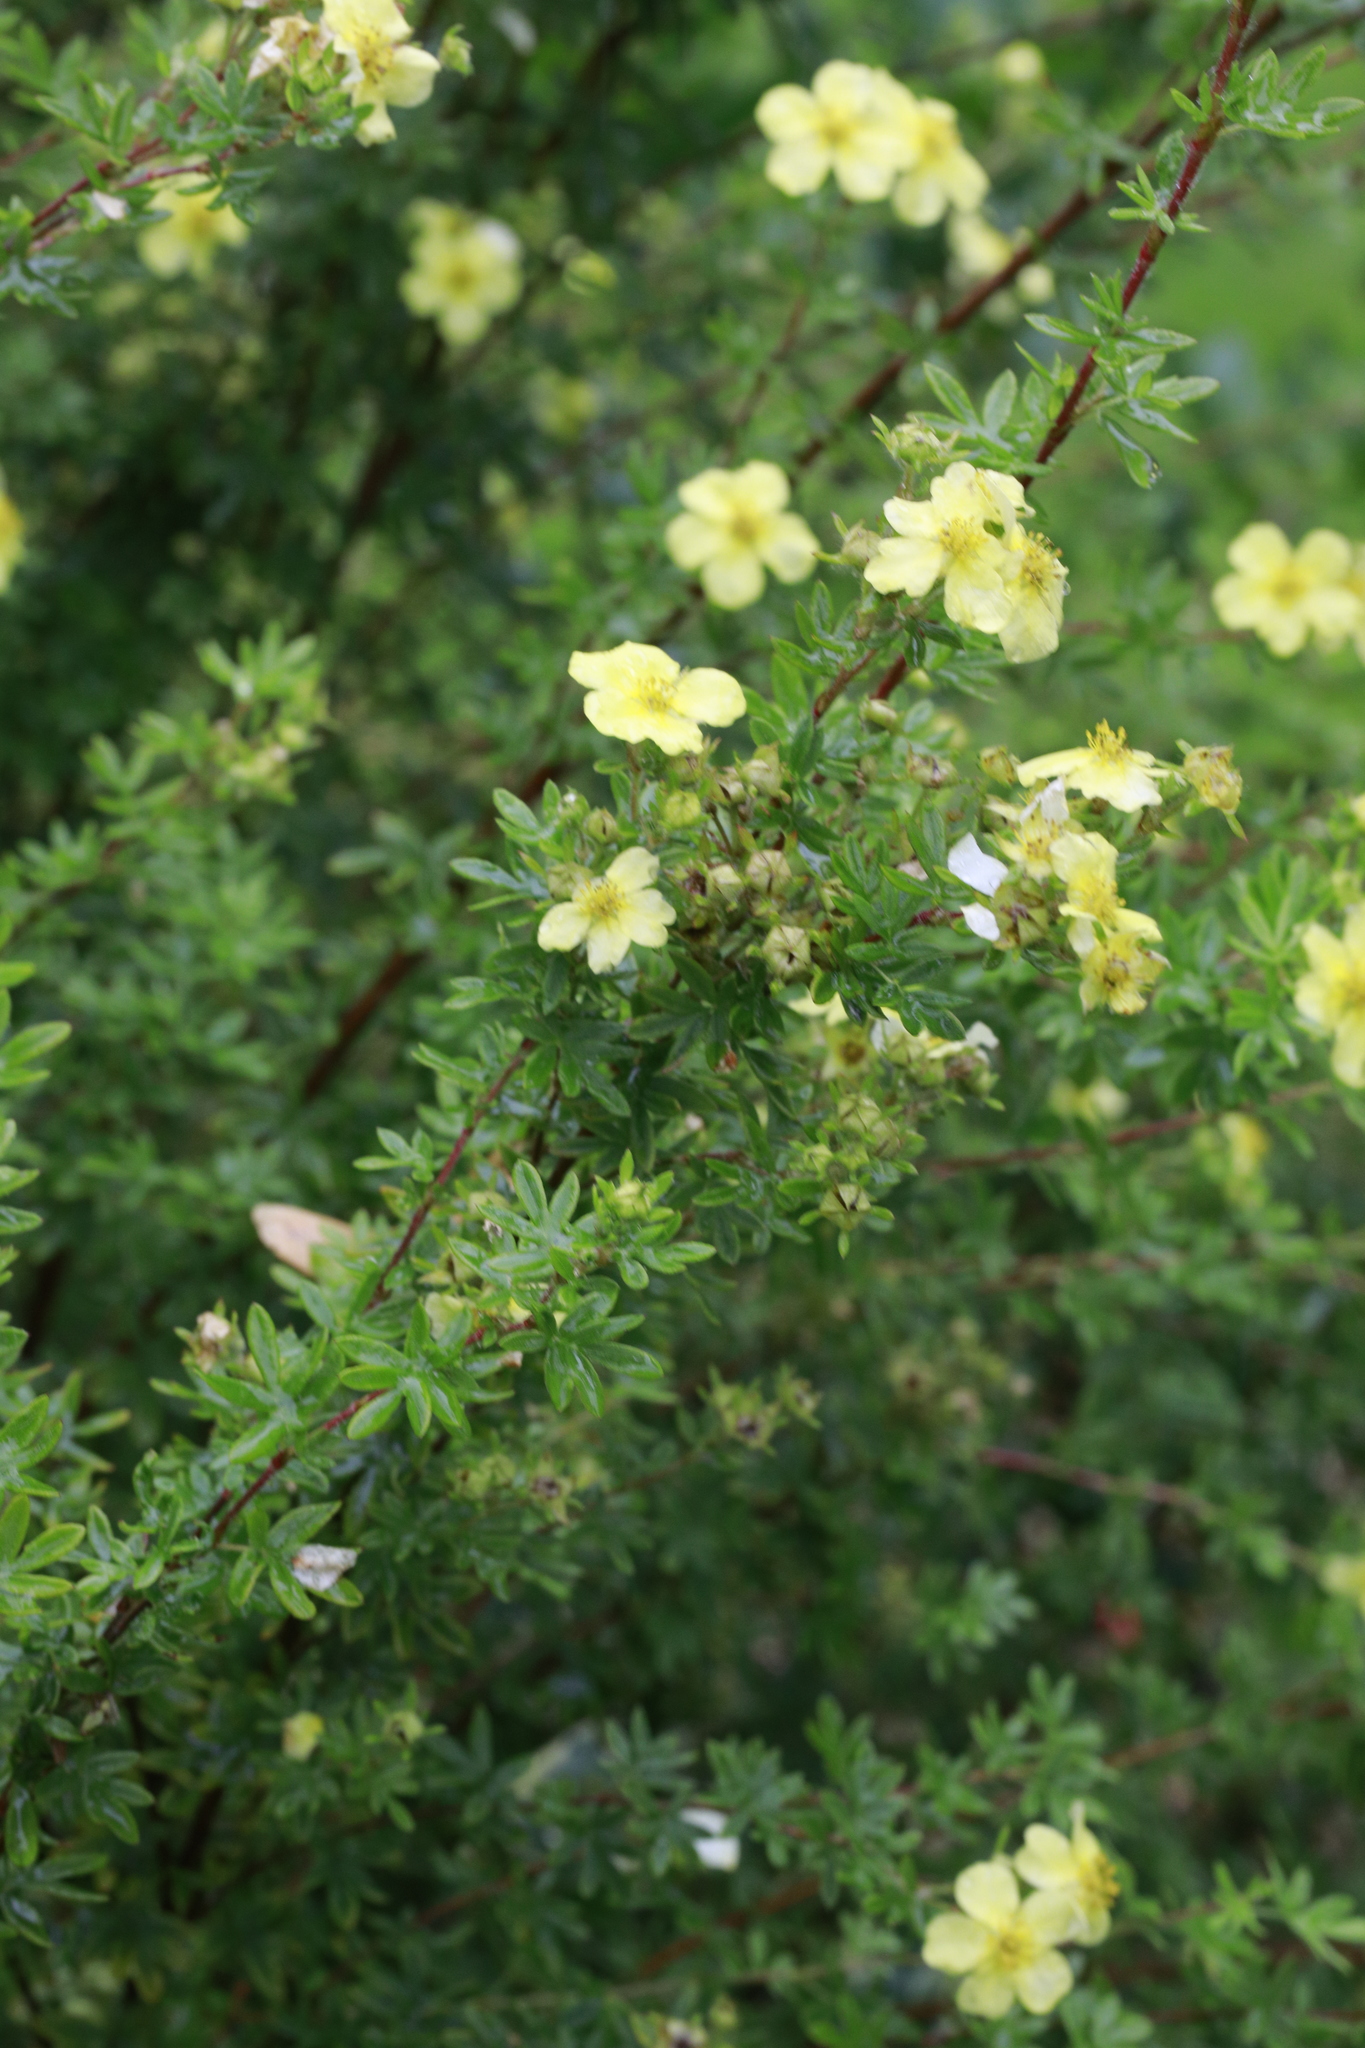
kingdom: Plantae
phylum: Tracheophyta
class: Magnoliopsida
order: Rosales
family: Rosaceae
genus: Dasiphora
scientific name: Dasiphora fruticosa
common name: Shrubby cinquefoil
